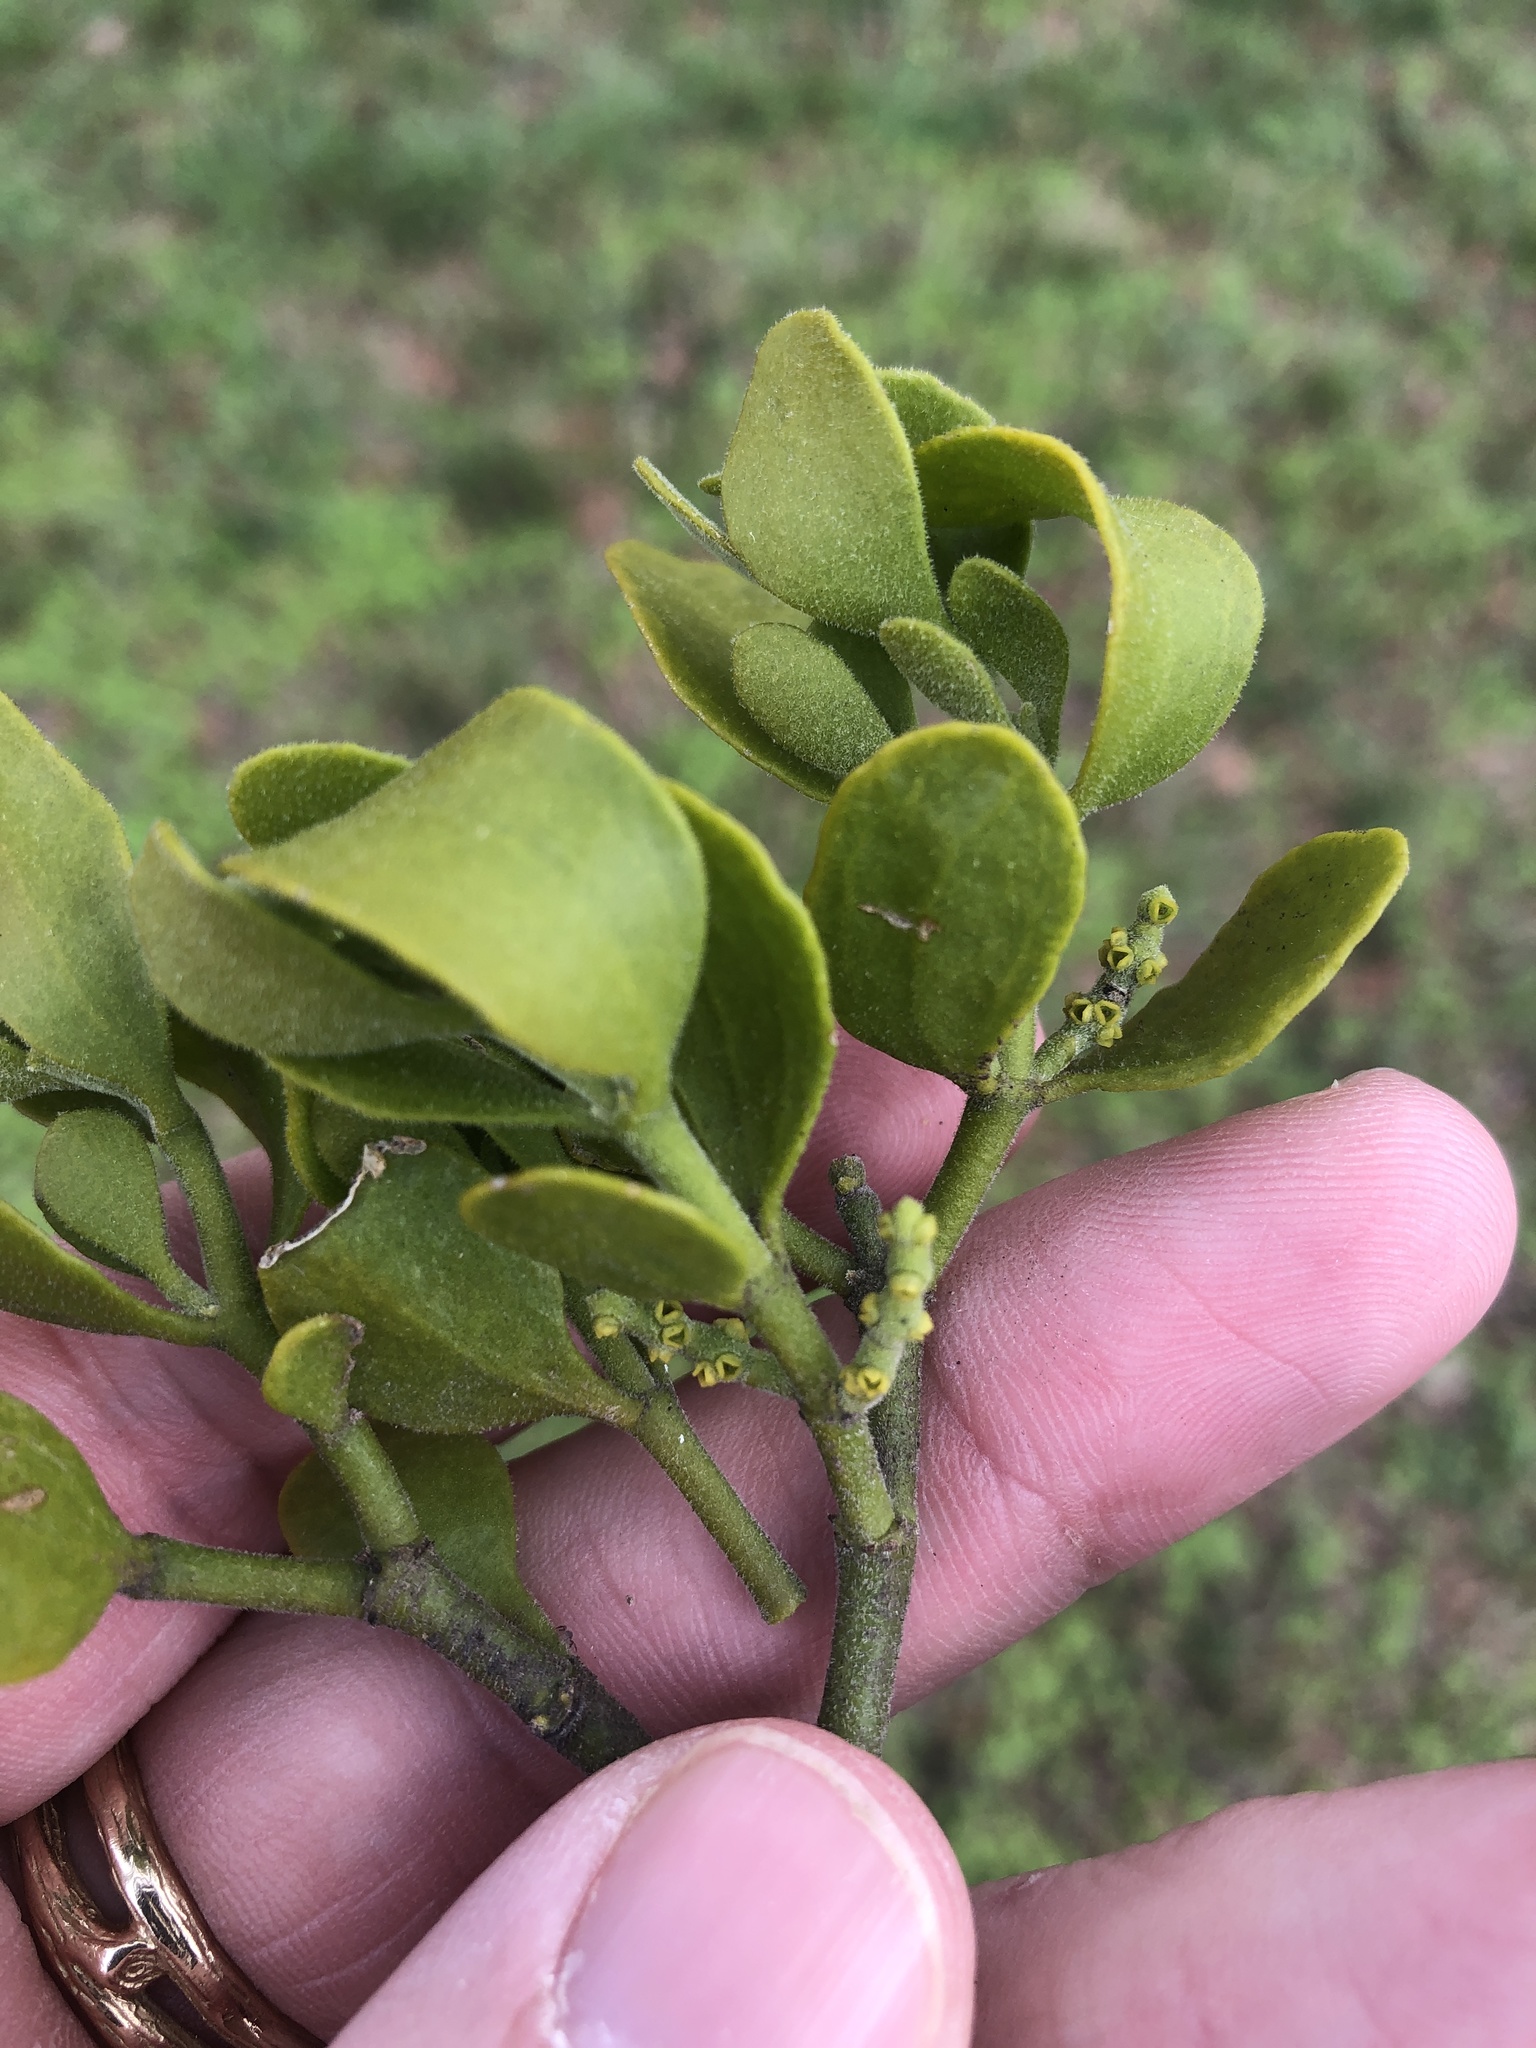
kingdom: Plantae
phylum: Tracheophyta
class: Magnoliopsida
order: Santalales
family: Viscaceae
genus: Phoradendron
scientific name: Phoradendron leucarpum
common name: Pacific mistletoe
